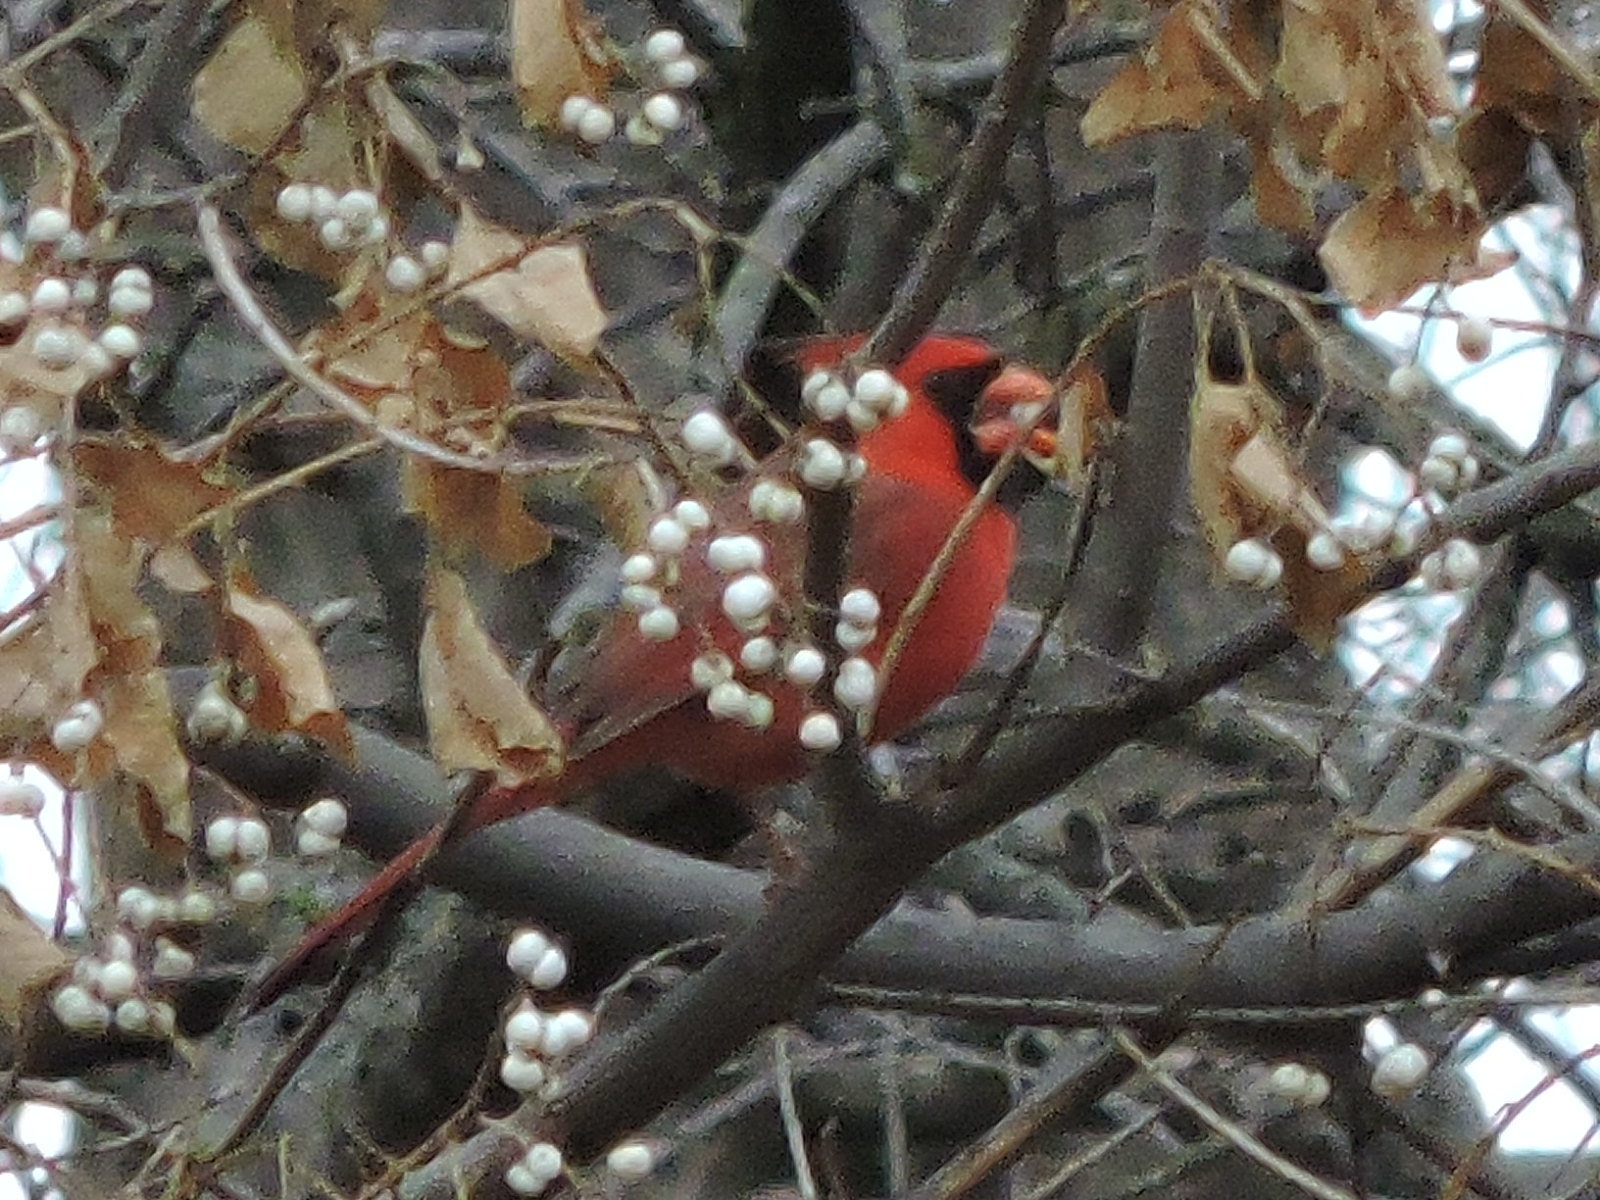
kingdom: Animalia
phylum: Chordata
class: Aves
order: Passeriformes
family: Cardinalidae
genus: Cardinalis
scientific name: Cardinalis cardinalis
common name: Northern cardinal
